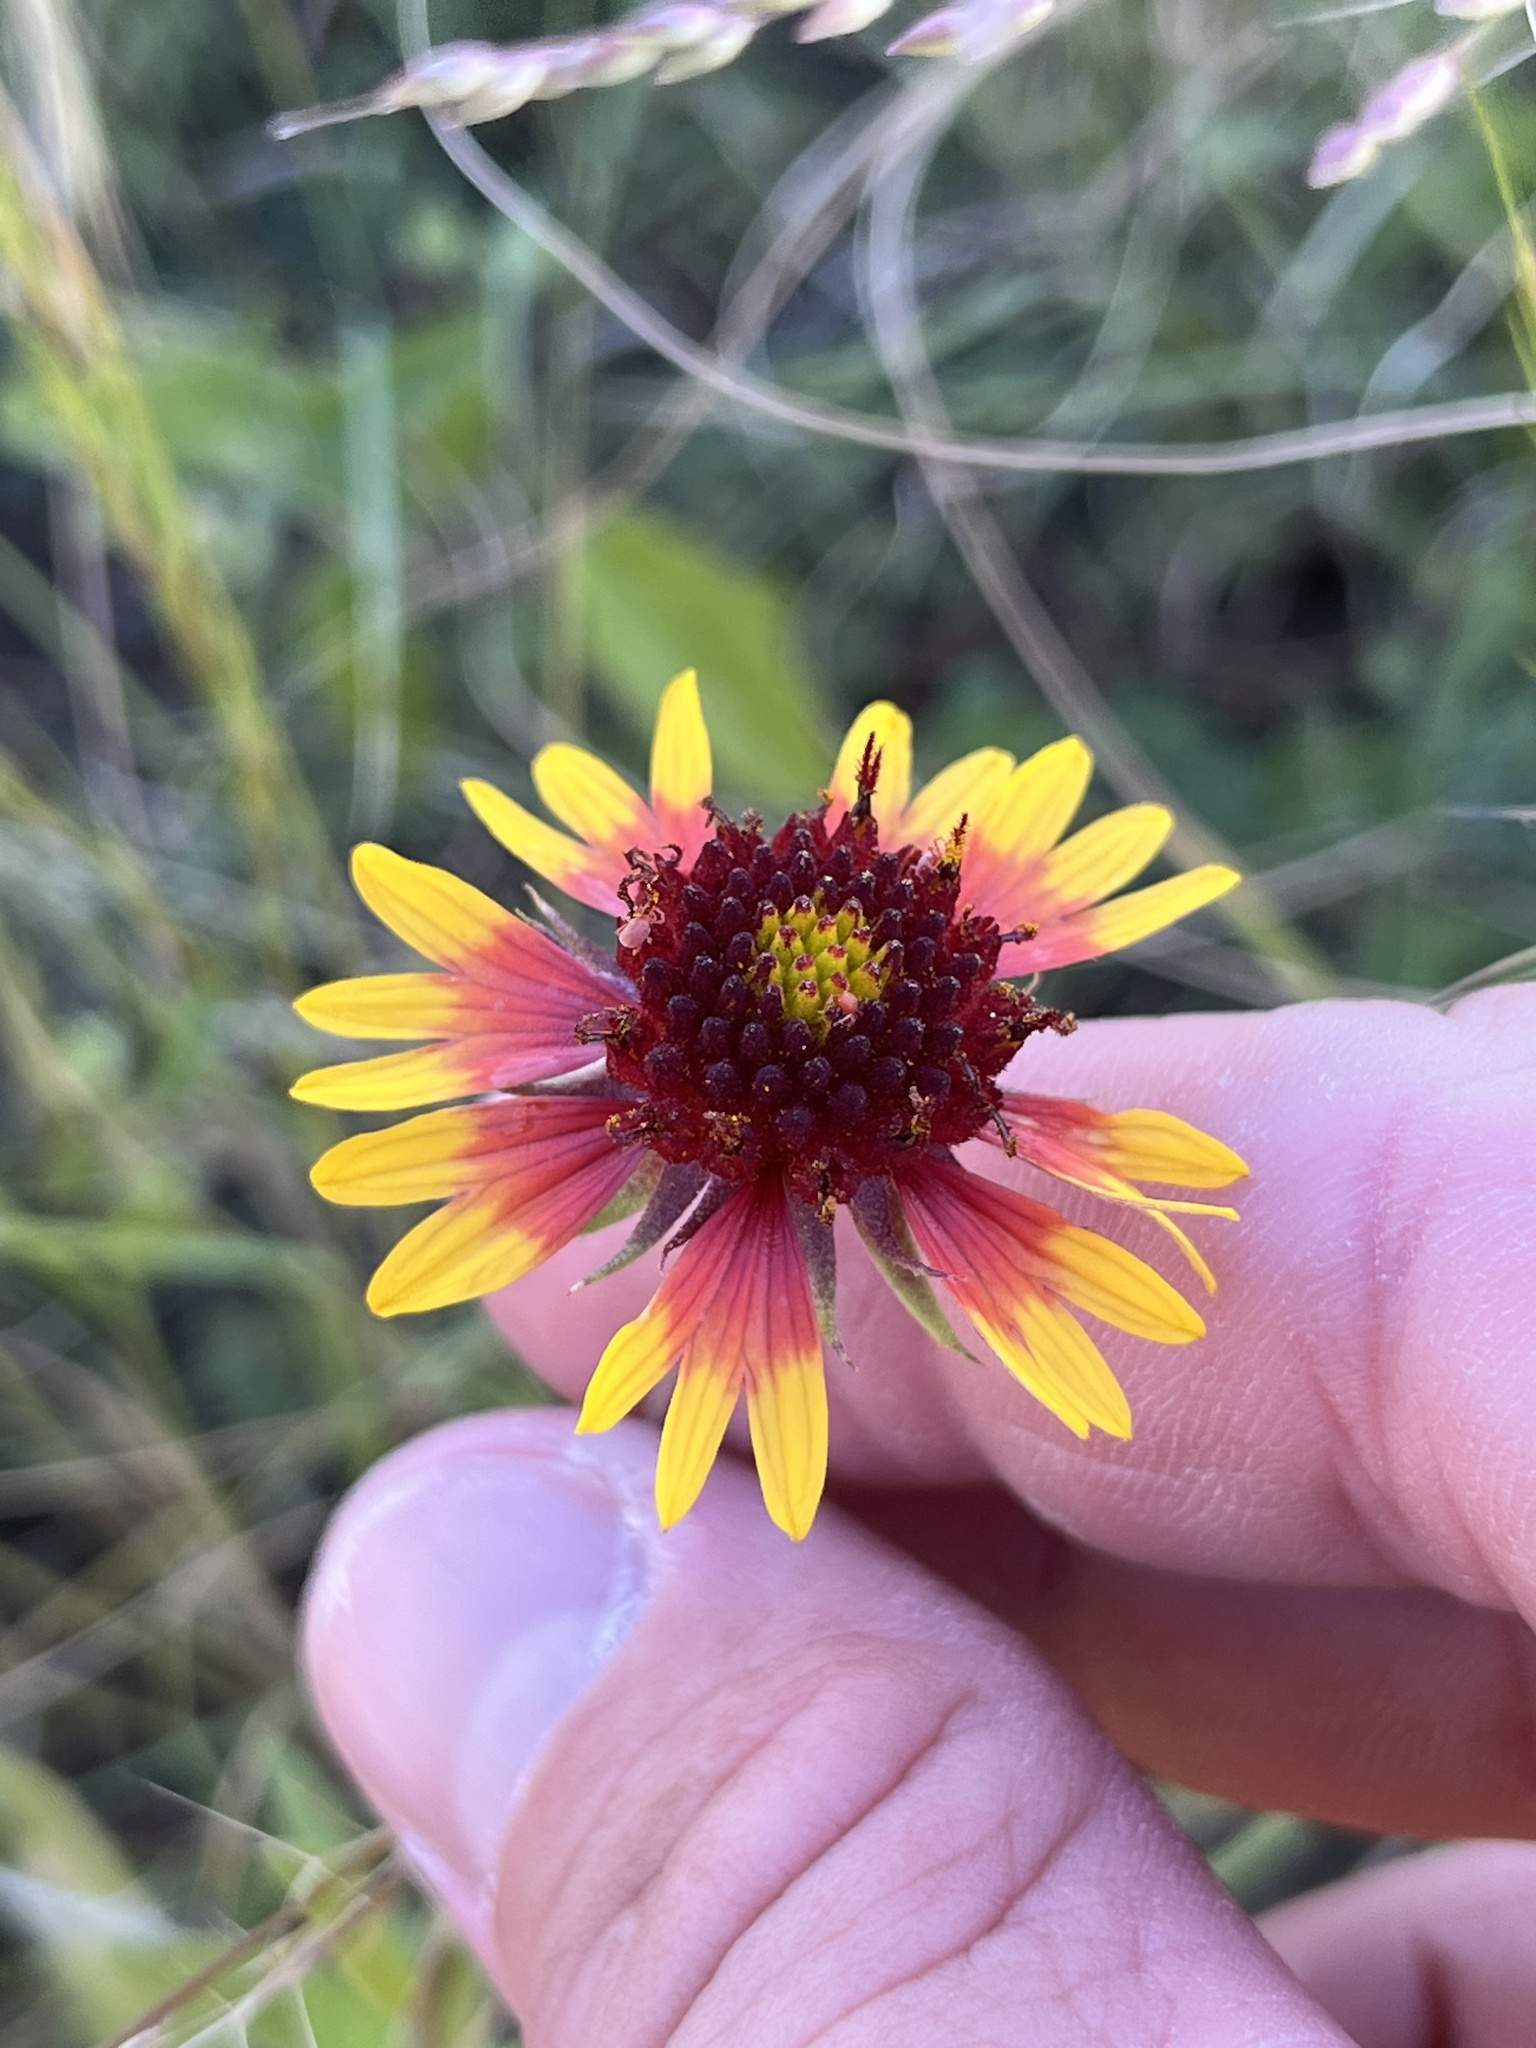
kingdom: Plantae
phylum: Tracheophyta
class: Magnoliopsida
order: Asterales
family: Asteraceae
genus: Gaillardia
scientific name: Gaillardia pulchella
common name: Firewheel
